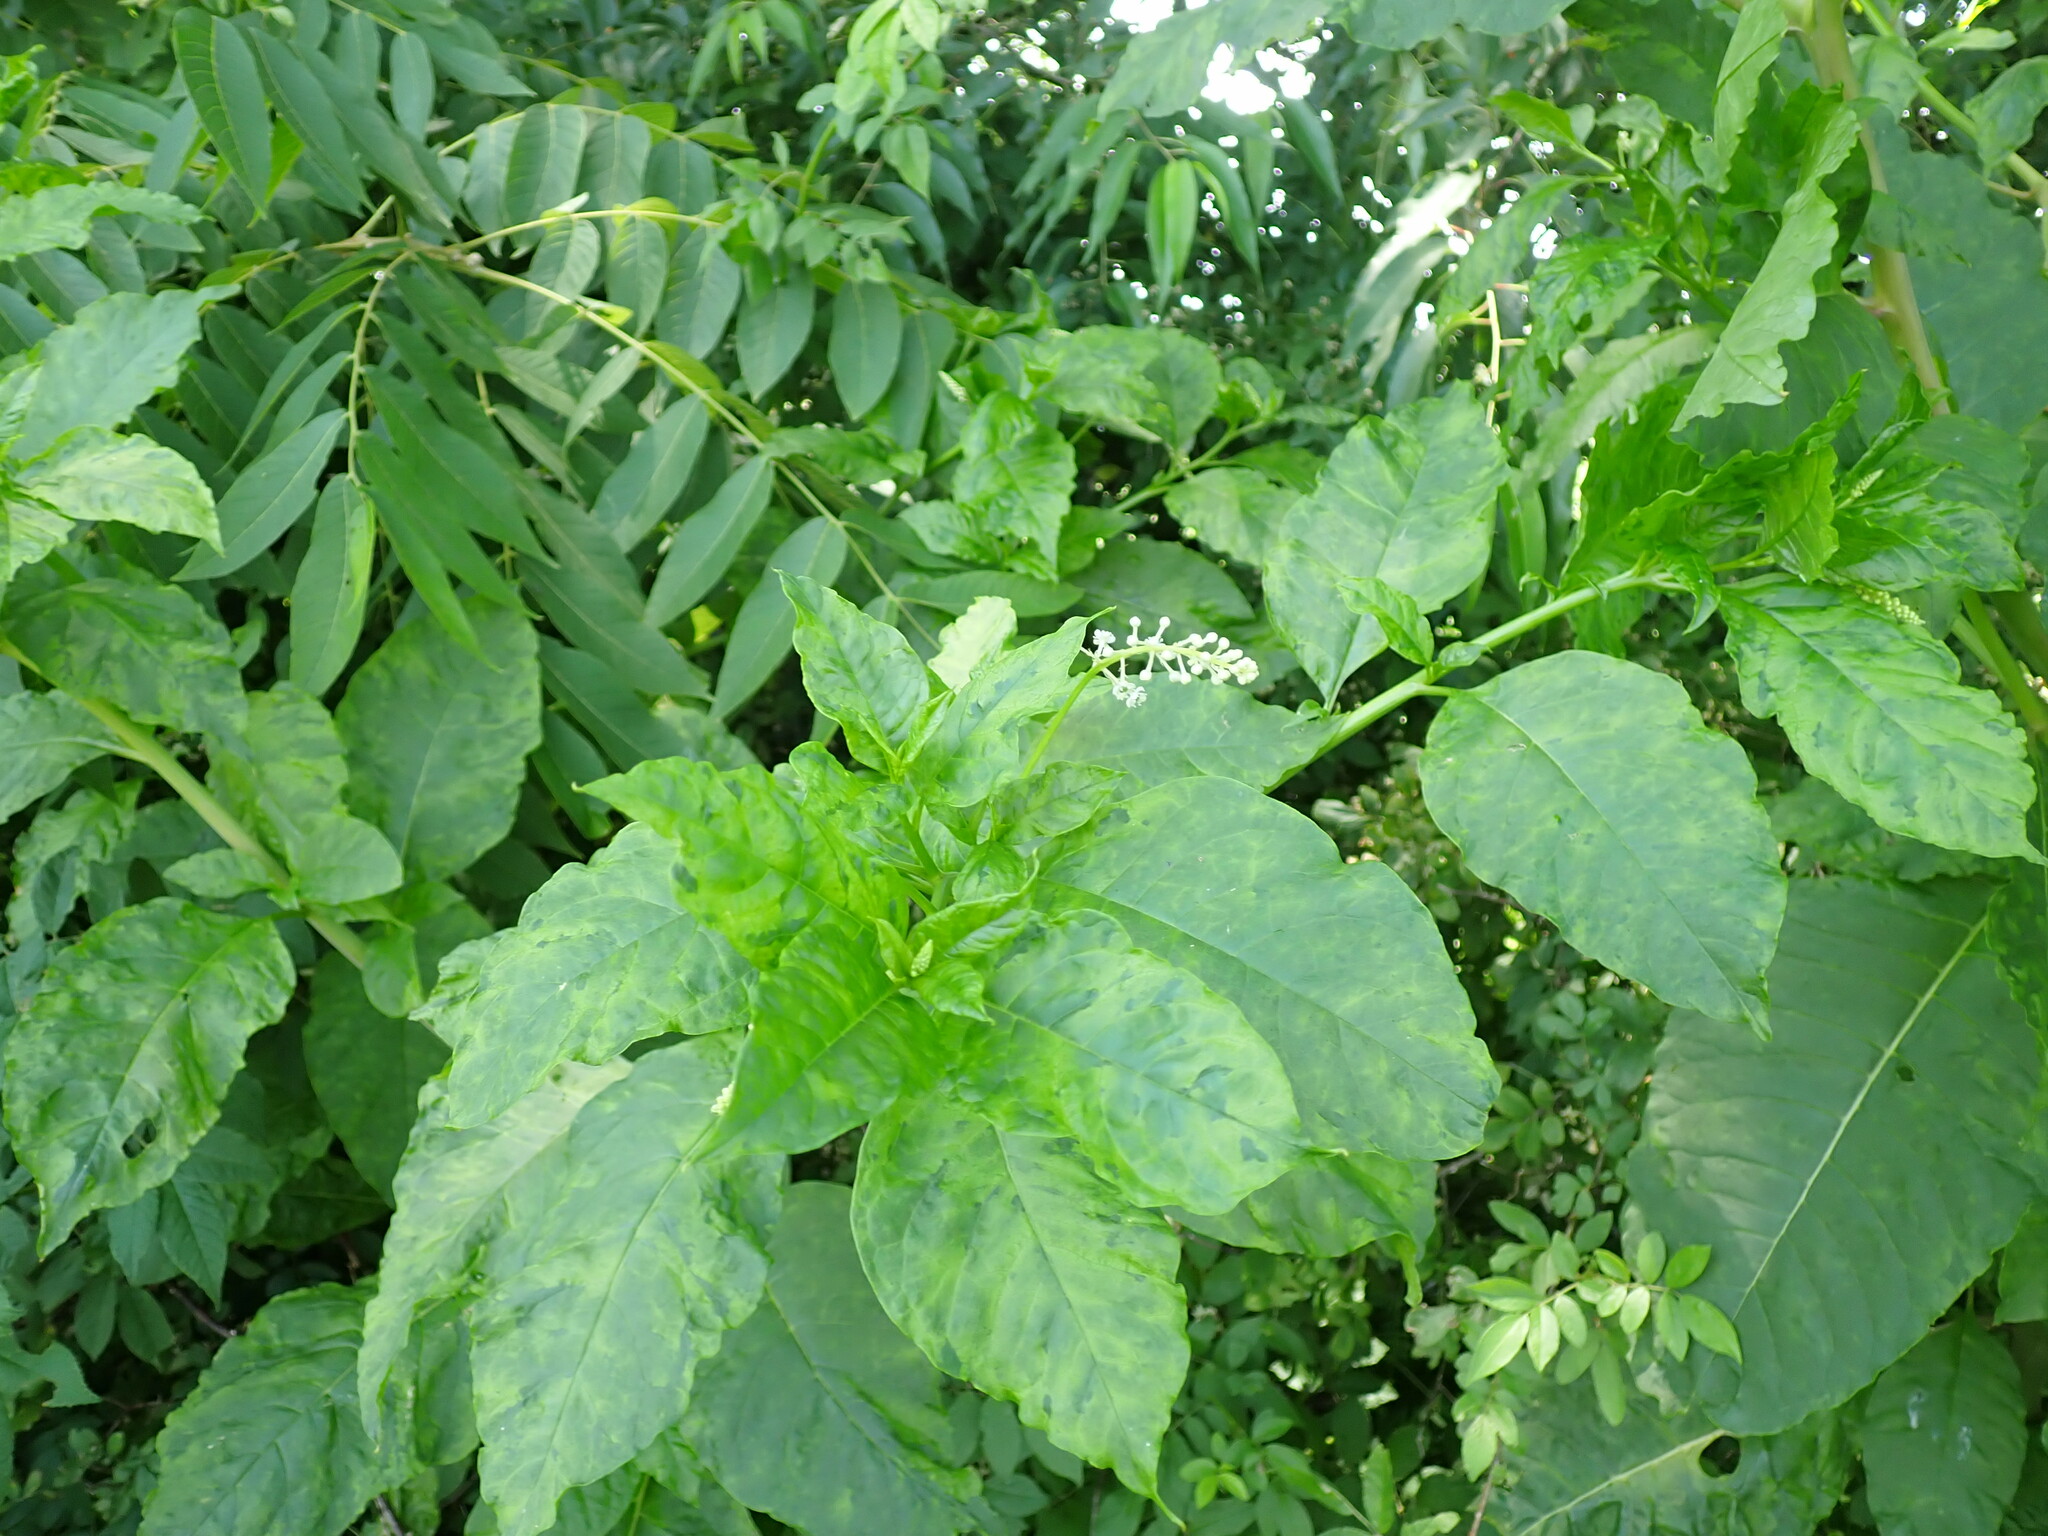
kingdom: Plantae
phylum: Tracheophyta
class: Magnoliopsida
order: Caryophyllales
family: Phytolaccaceae
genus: Phytolacca
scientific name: Phytolacca americana
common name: American pokeweed
